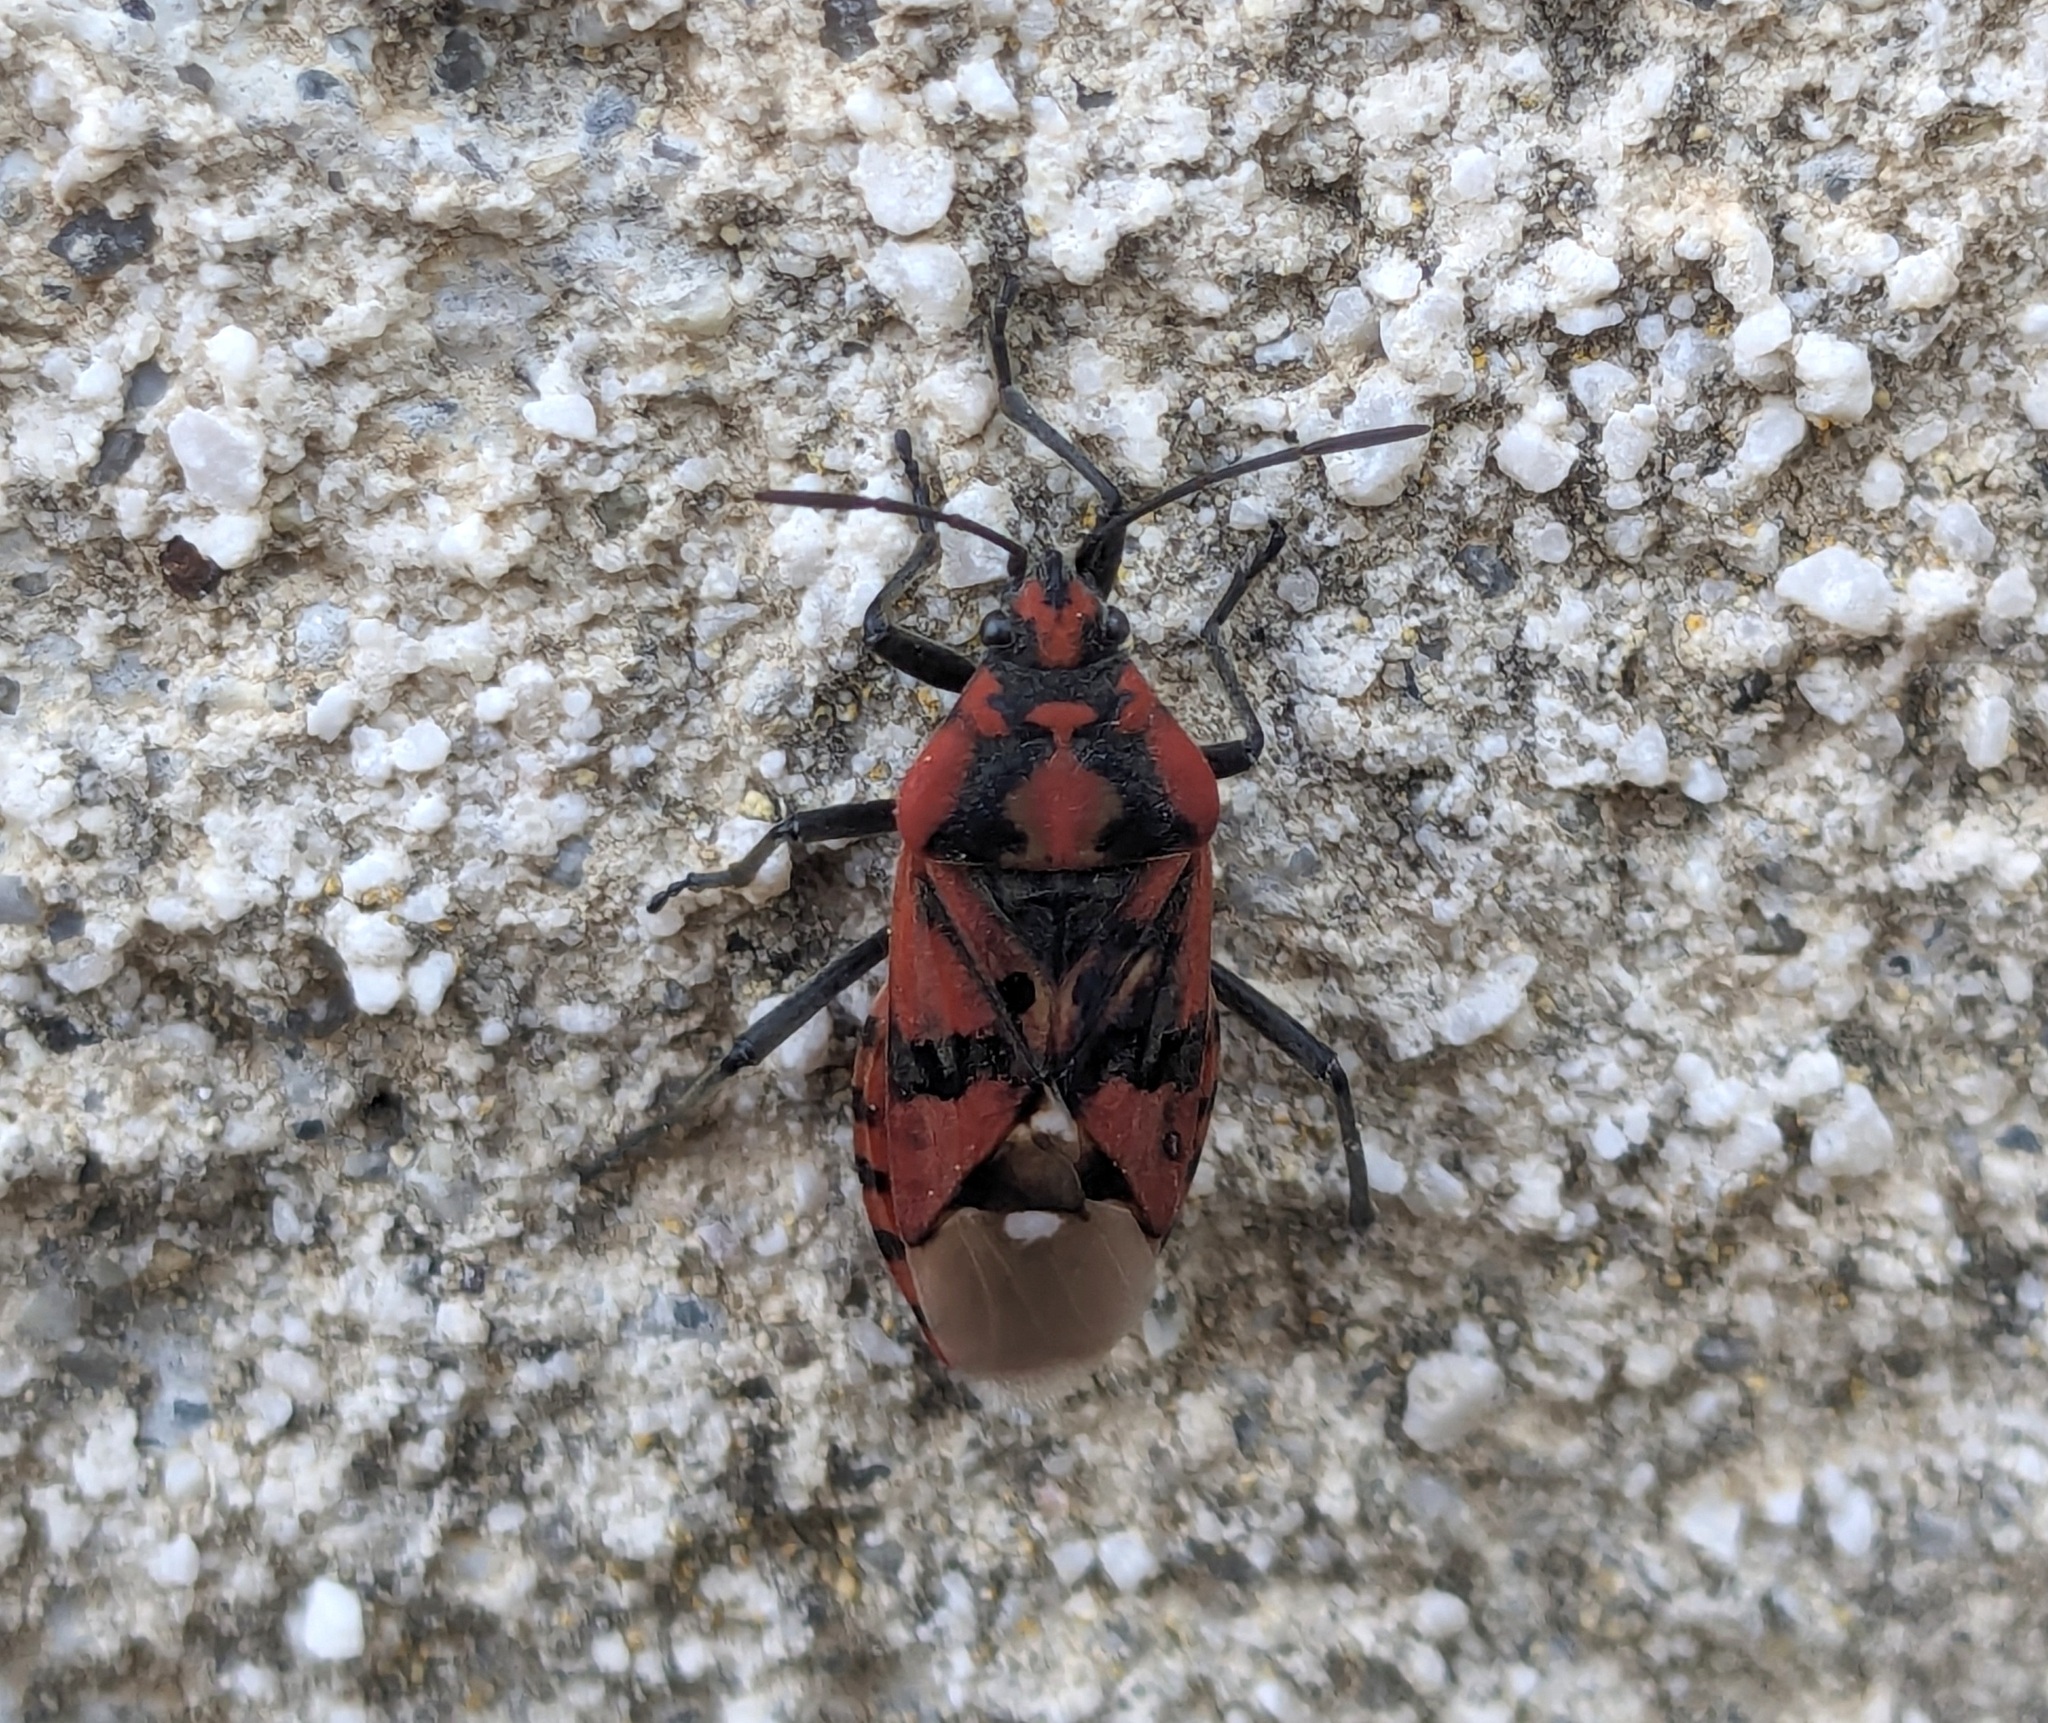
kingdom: Animalia
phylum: Arthropoda
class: Insecta
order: Hemiptera
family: Lygaeidae
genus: Spilostethus
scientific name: Spilostethus pandurus
